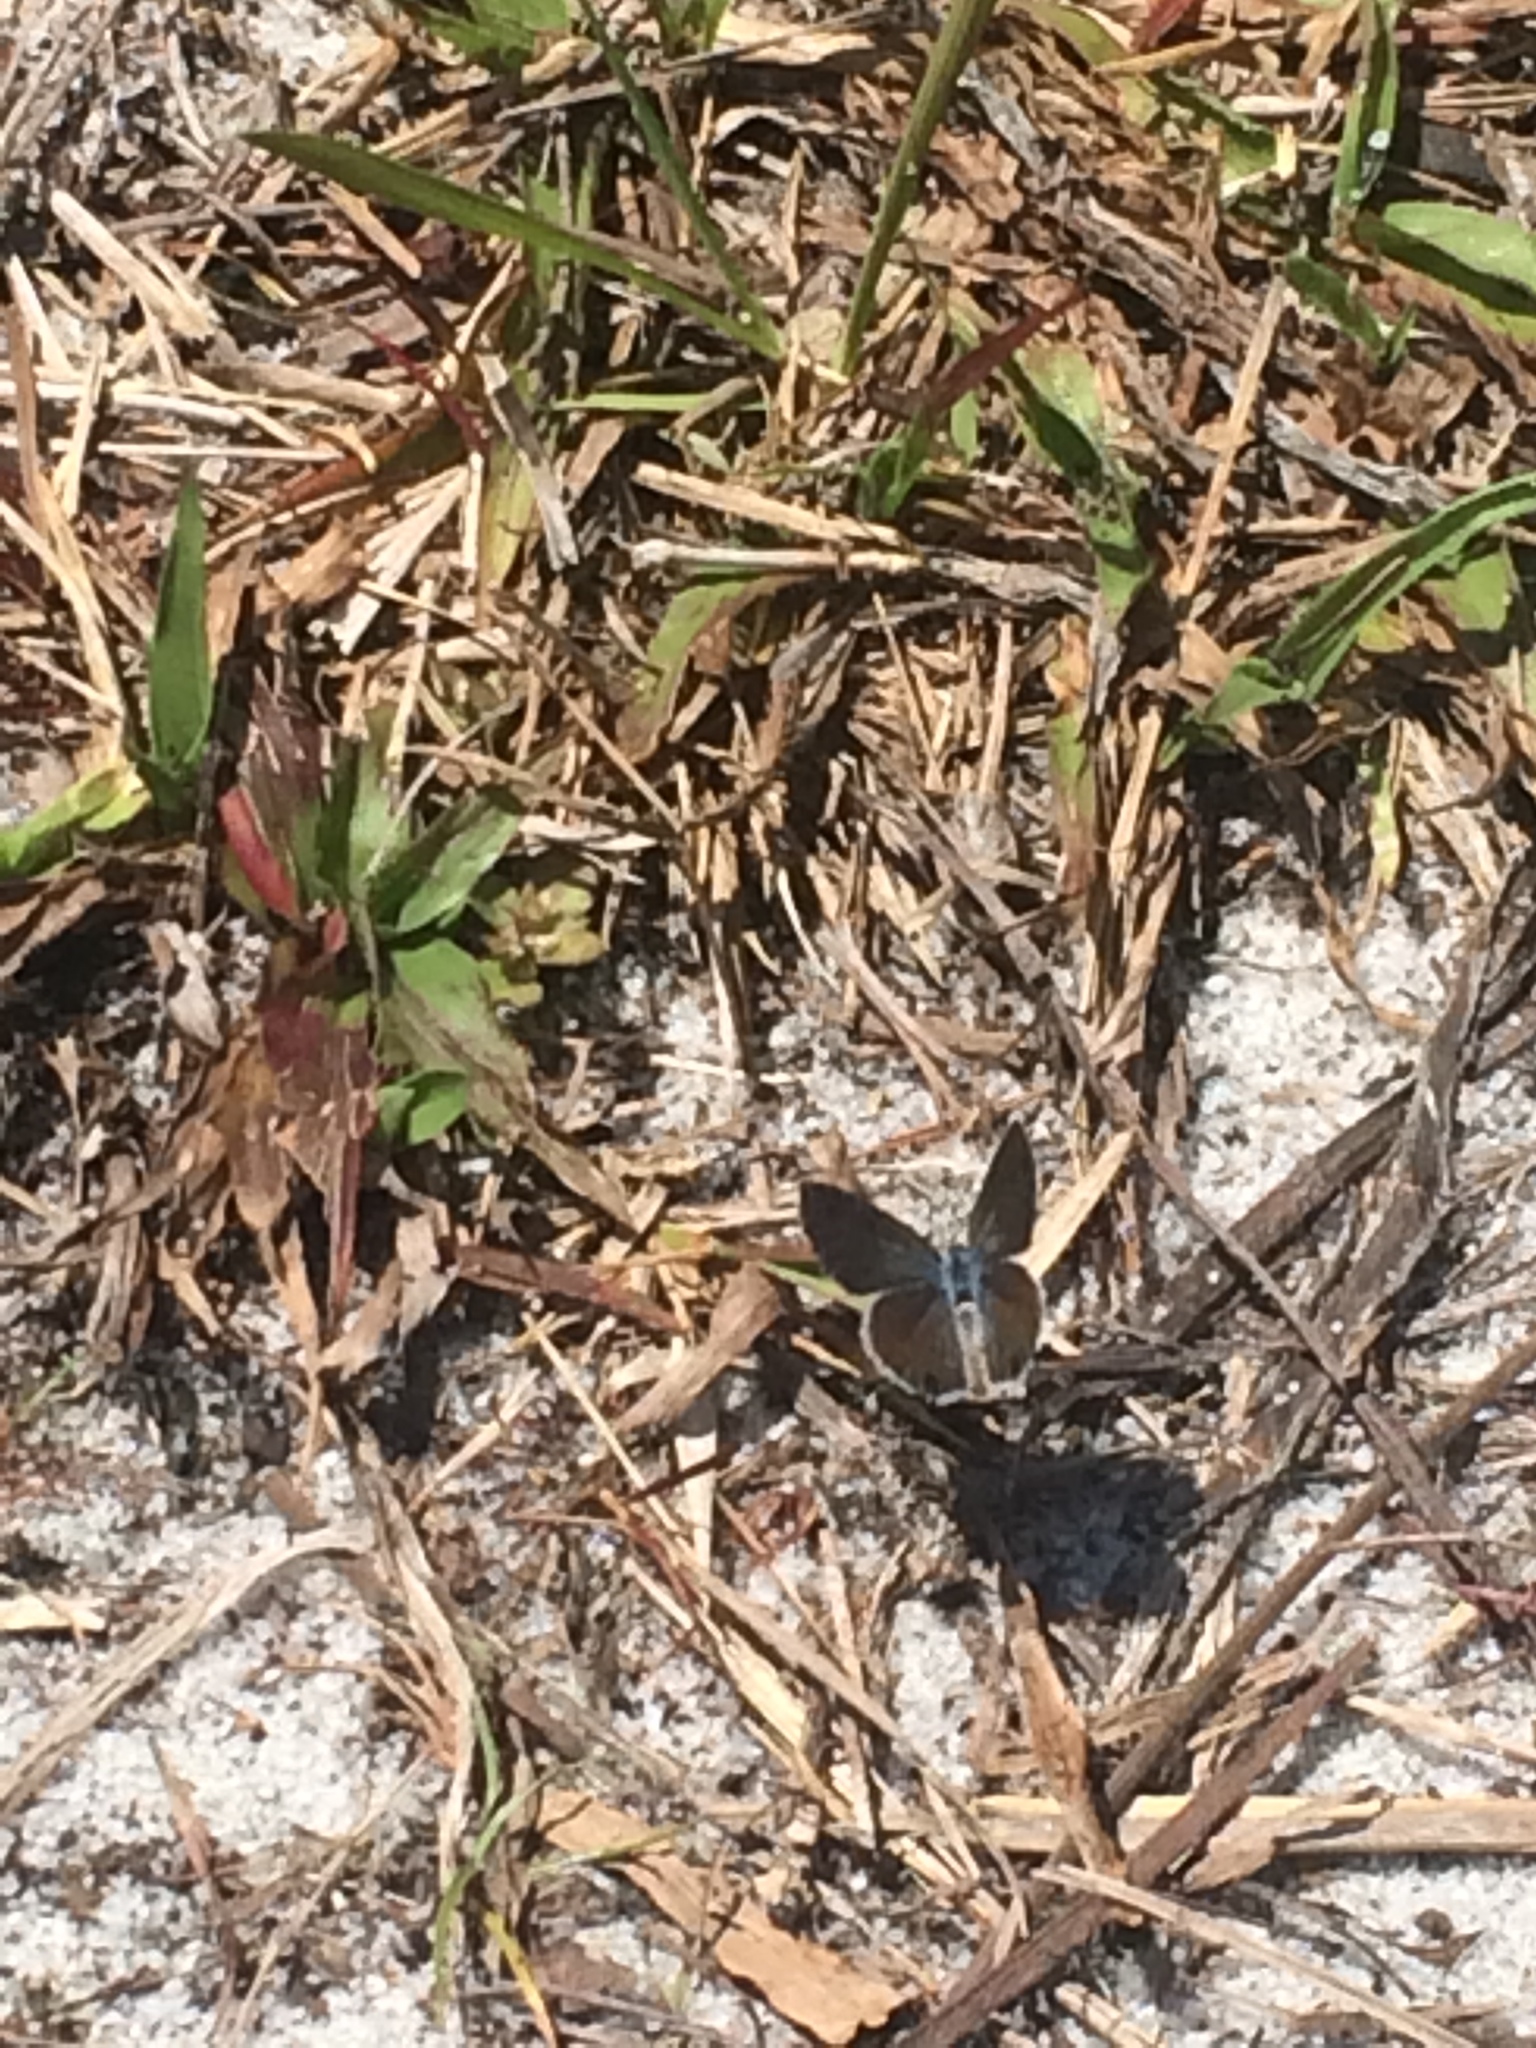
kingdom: Animalia
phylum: Arthropoda
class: Insecta
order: Lepidoptera
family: Lycaenidae
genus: Hemiargus
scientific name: Hemiargus ceraunus
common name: Ceraunus blue
